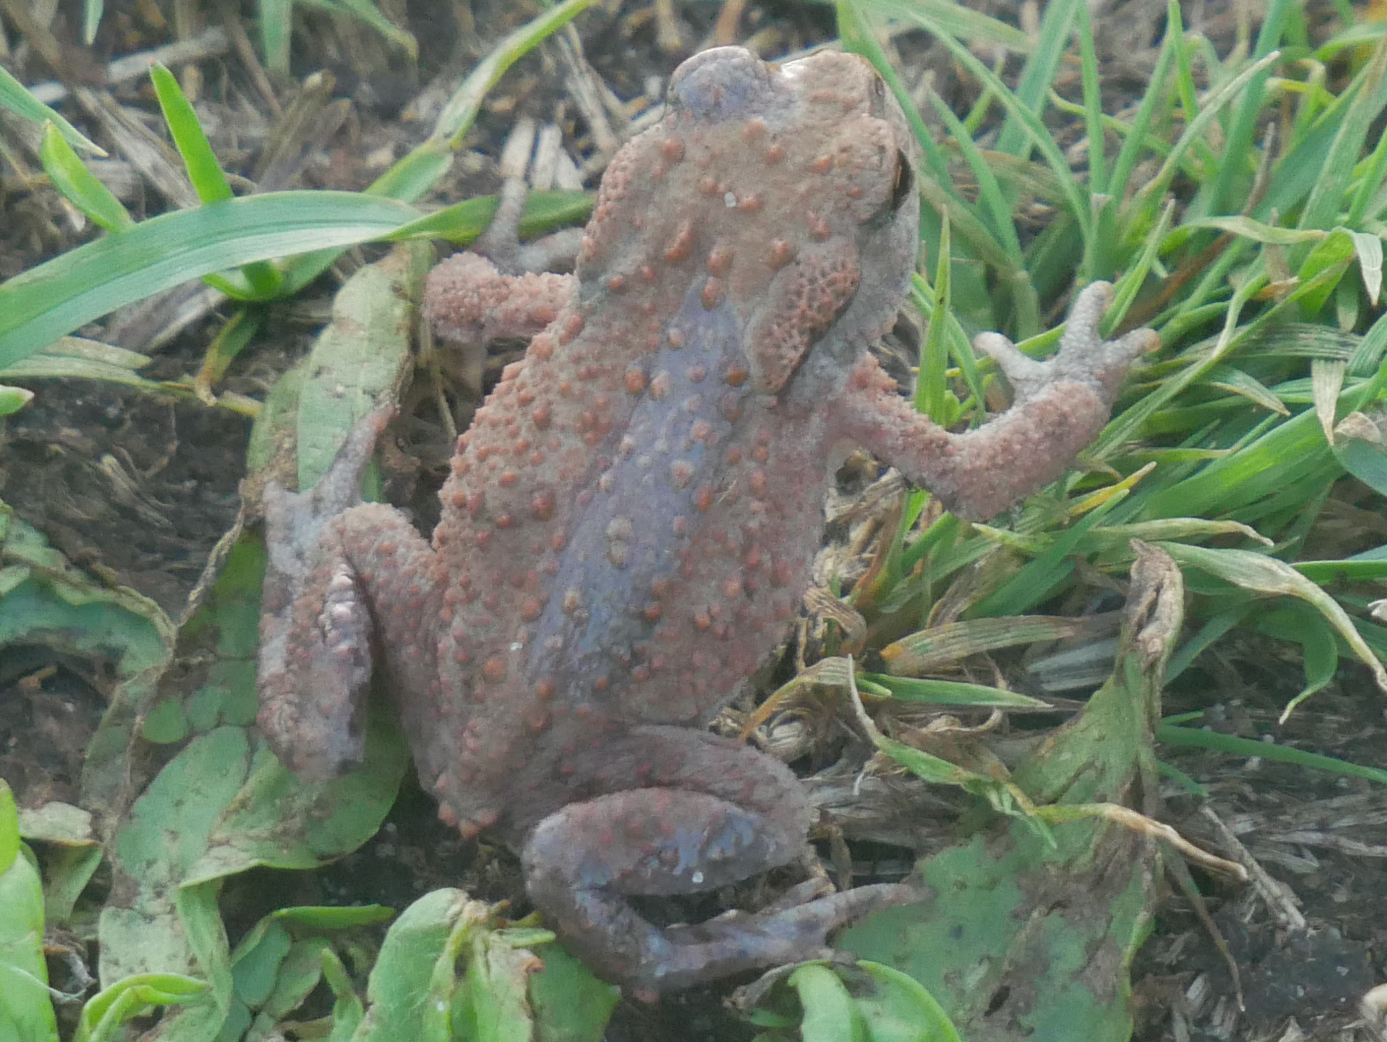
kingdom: Animalia
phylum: Chordata
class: Amphibia
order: Anura
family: Bufonidae
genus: Bufo
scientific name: Bufo bufo
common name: Common toad
